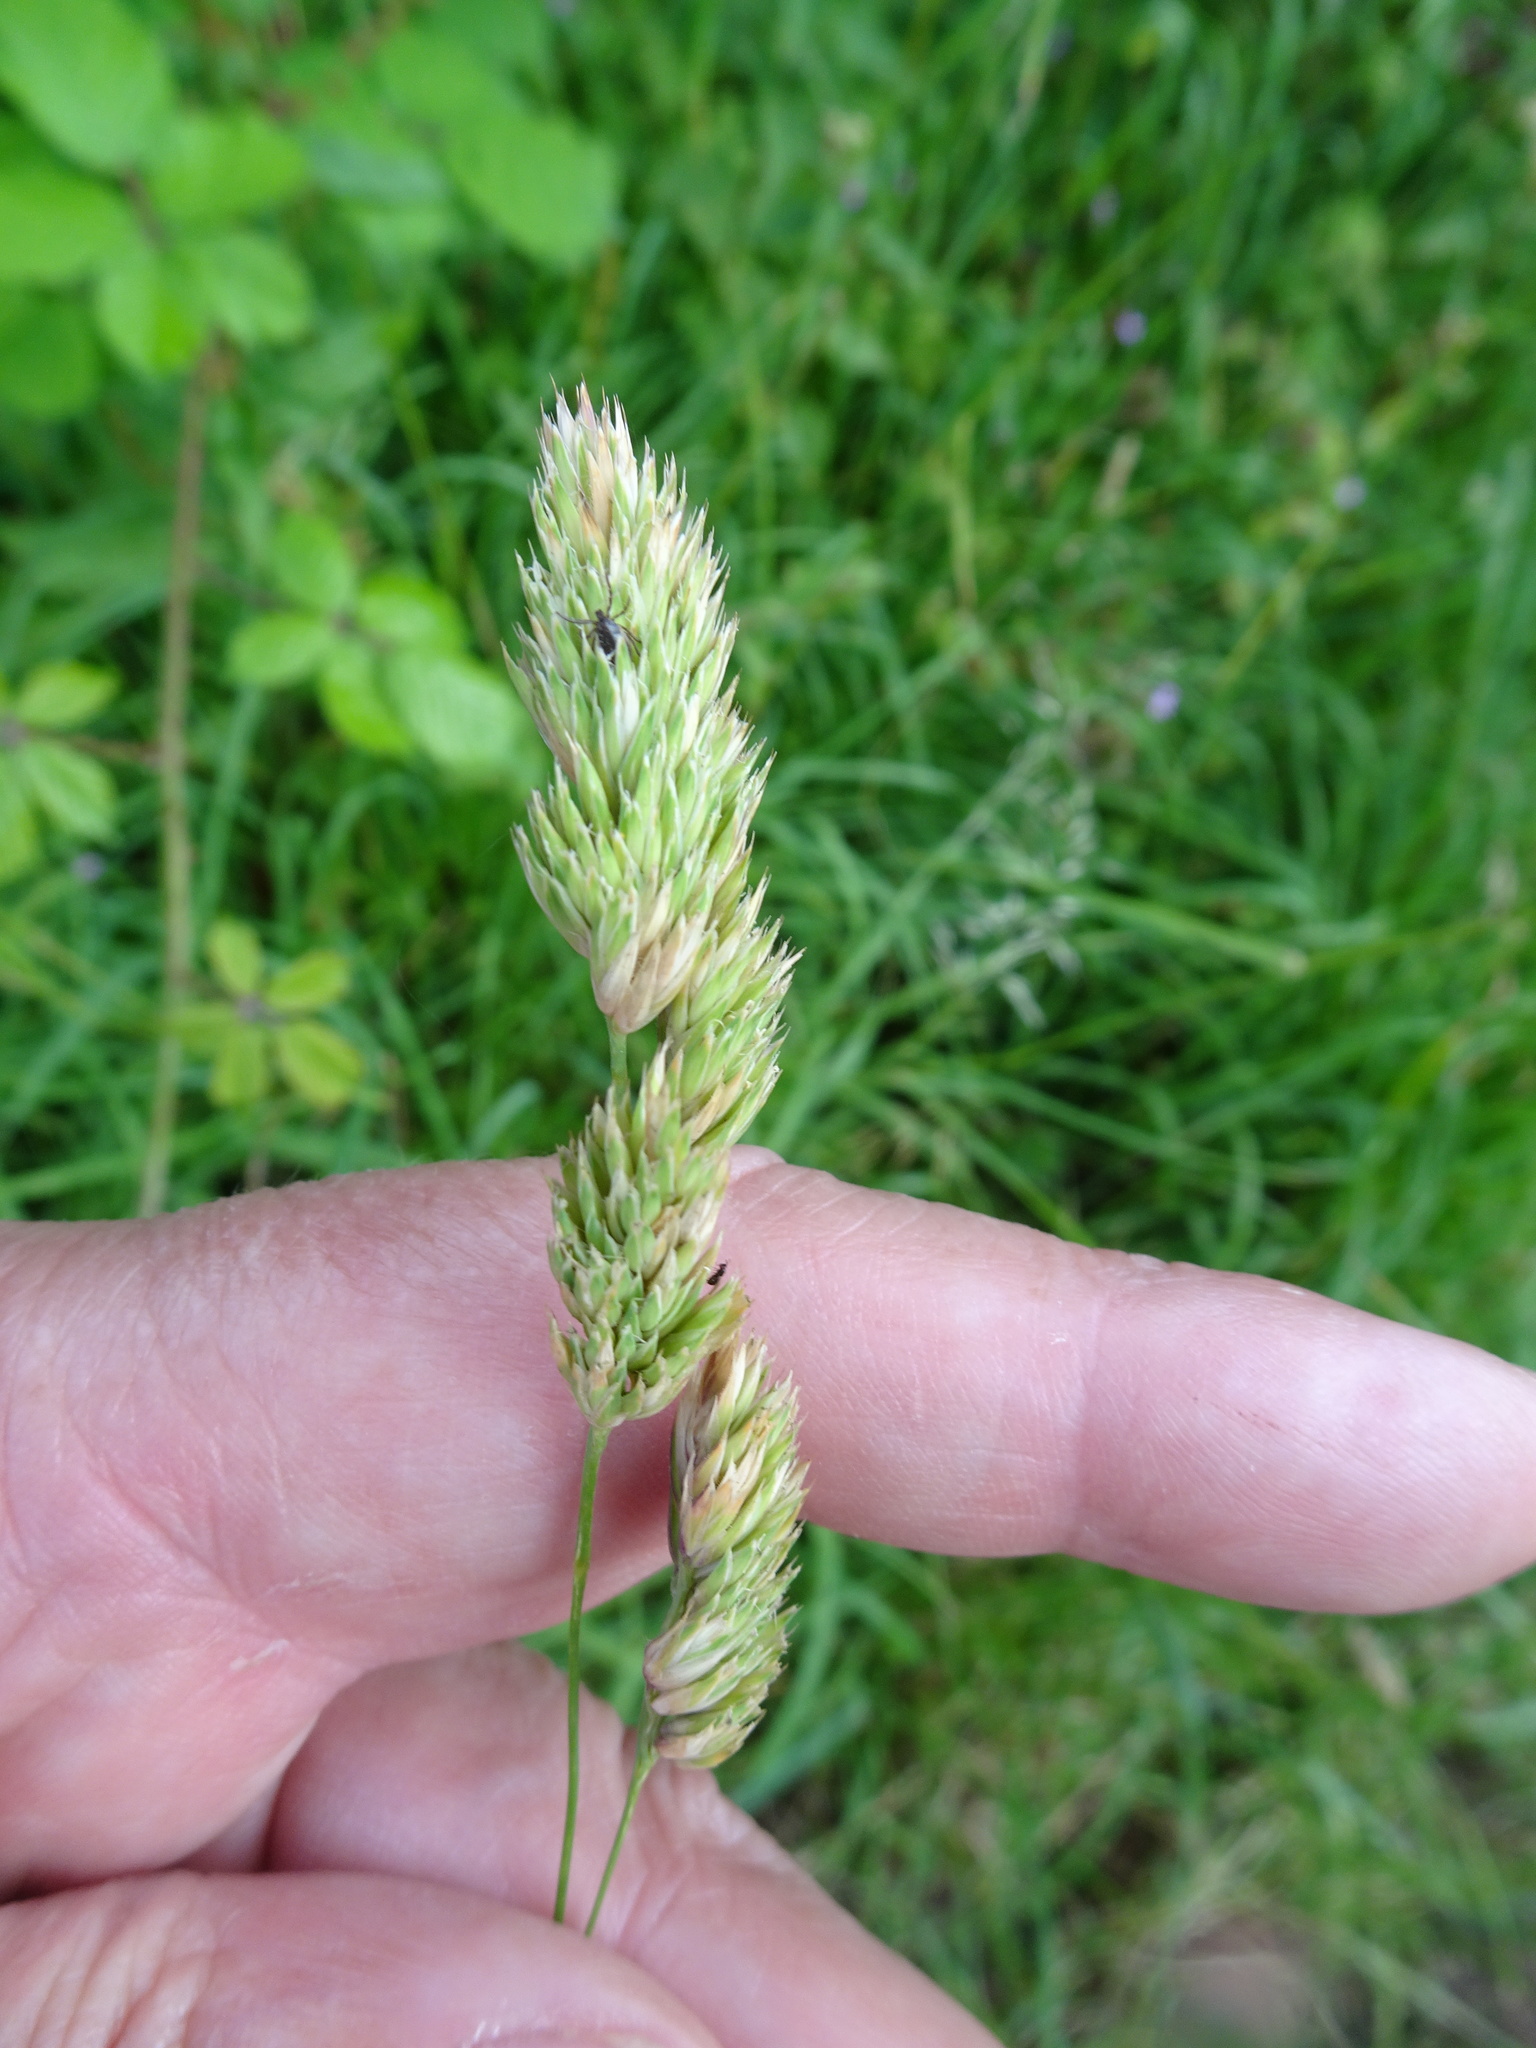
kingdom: Plantae
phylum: Tracheophyta
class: Liliopsida
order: Poales
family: Poaceae
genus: Dactylis
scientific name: Dactylis glomerata
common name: Orchardgrass
